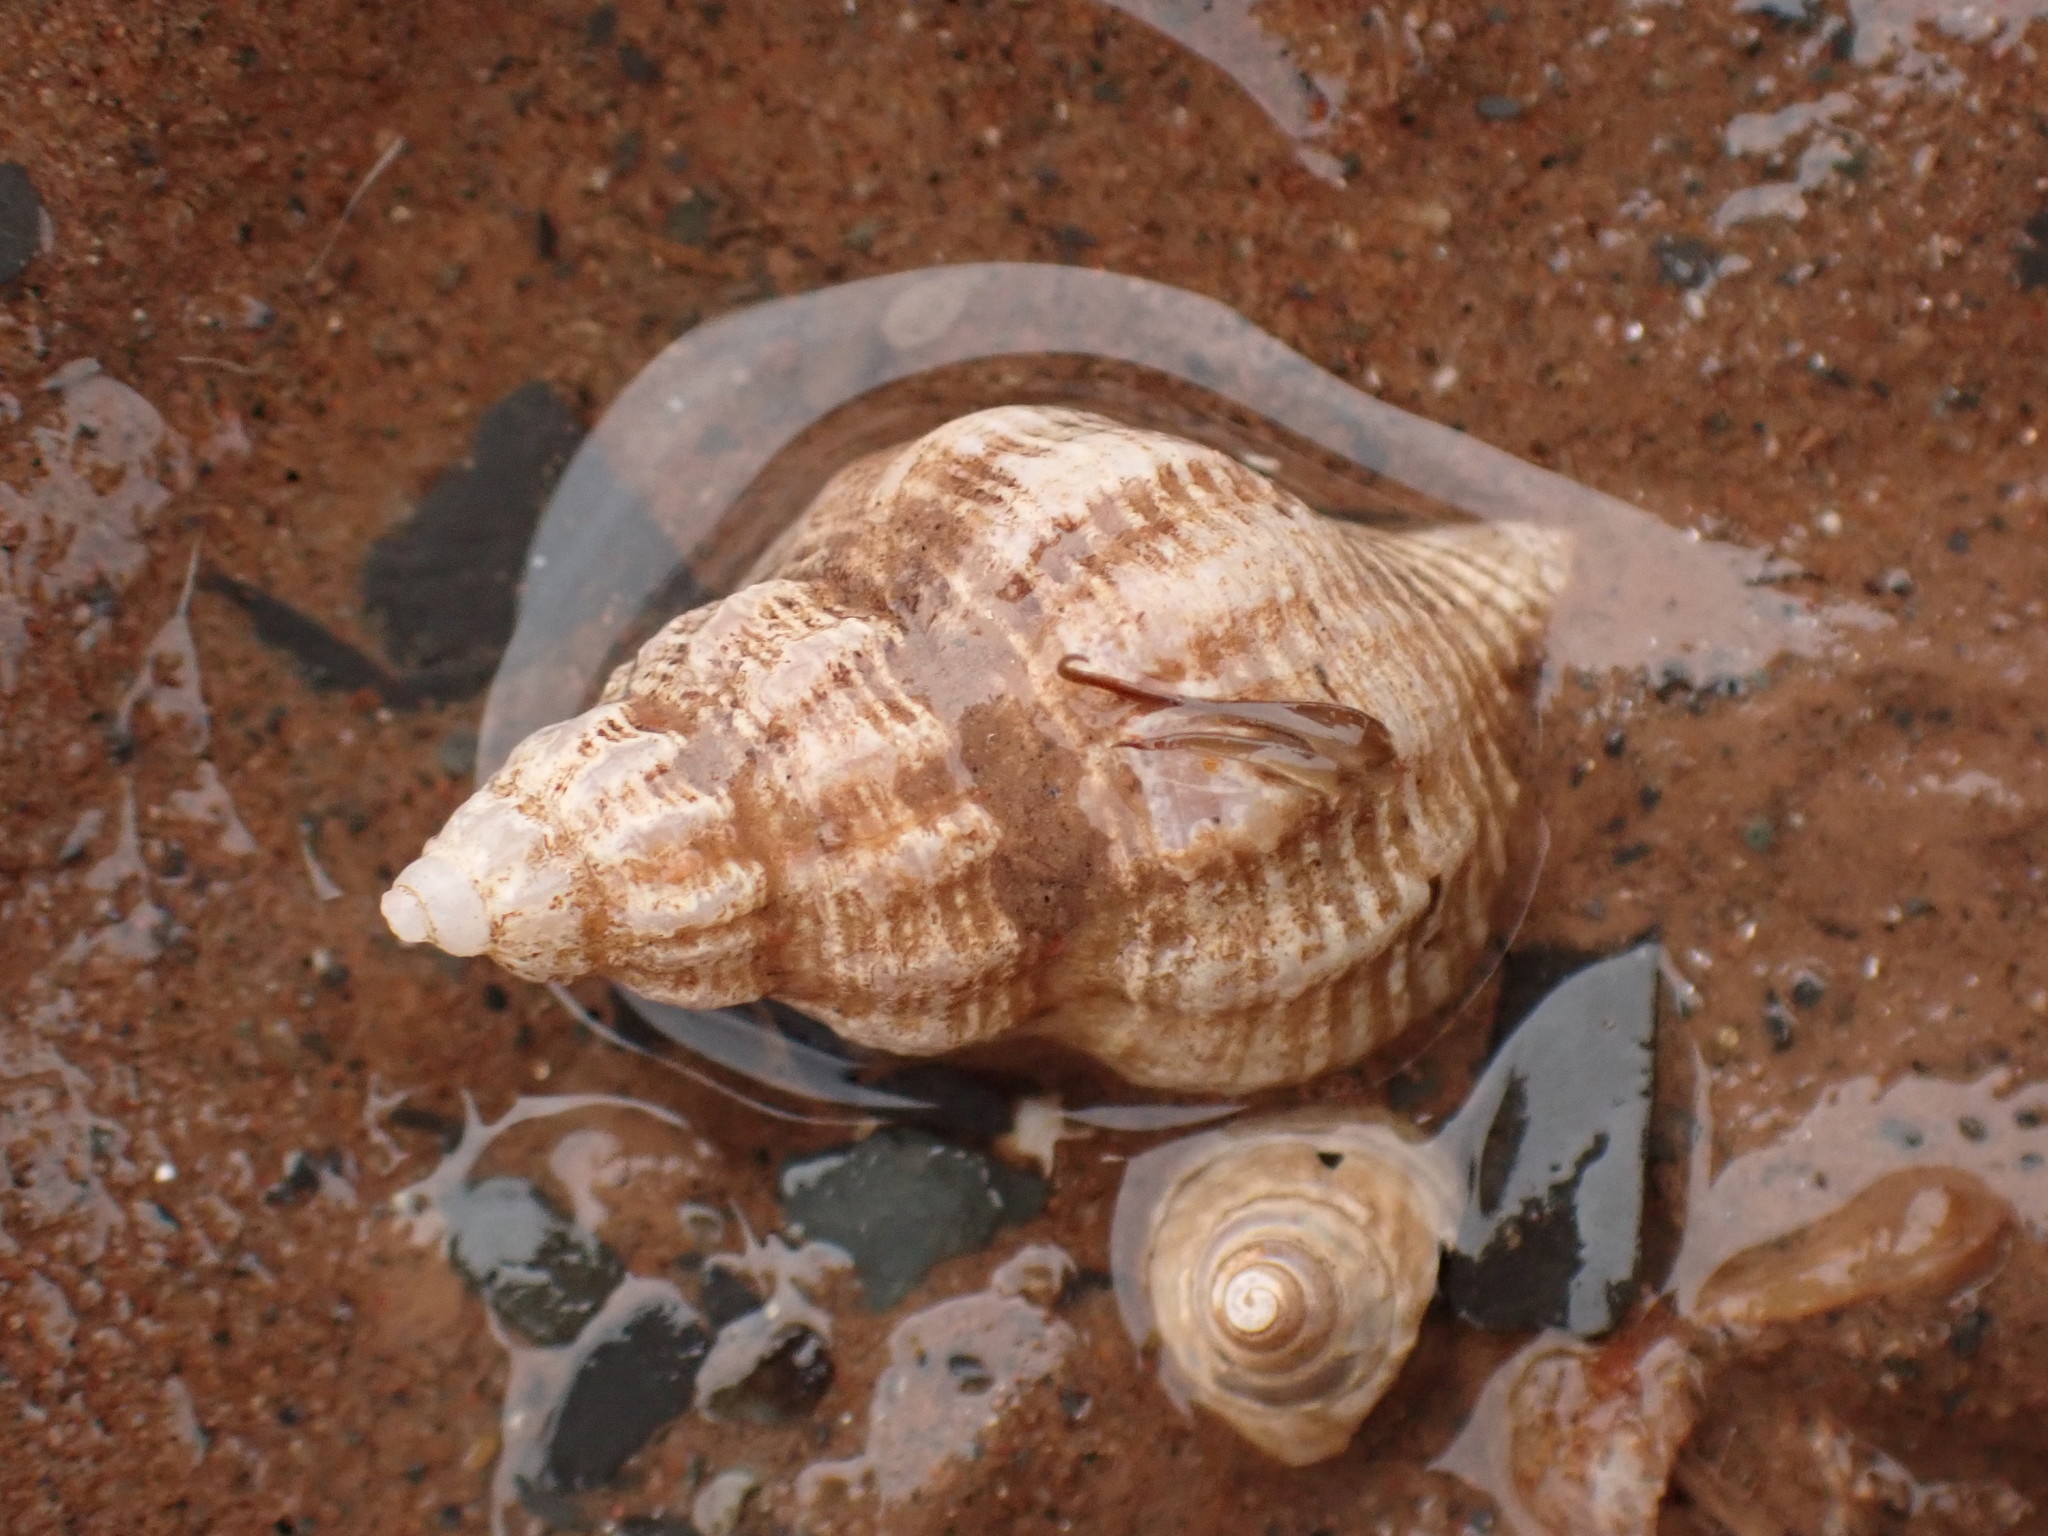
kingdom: Animalia
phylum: Mollusca
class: Gastropoda
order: Neogastropoda
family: Muricidae
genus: Urosalpinx
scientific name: Urosalpinx cinerea
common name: American sting winkle
